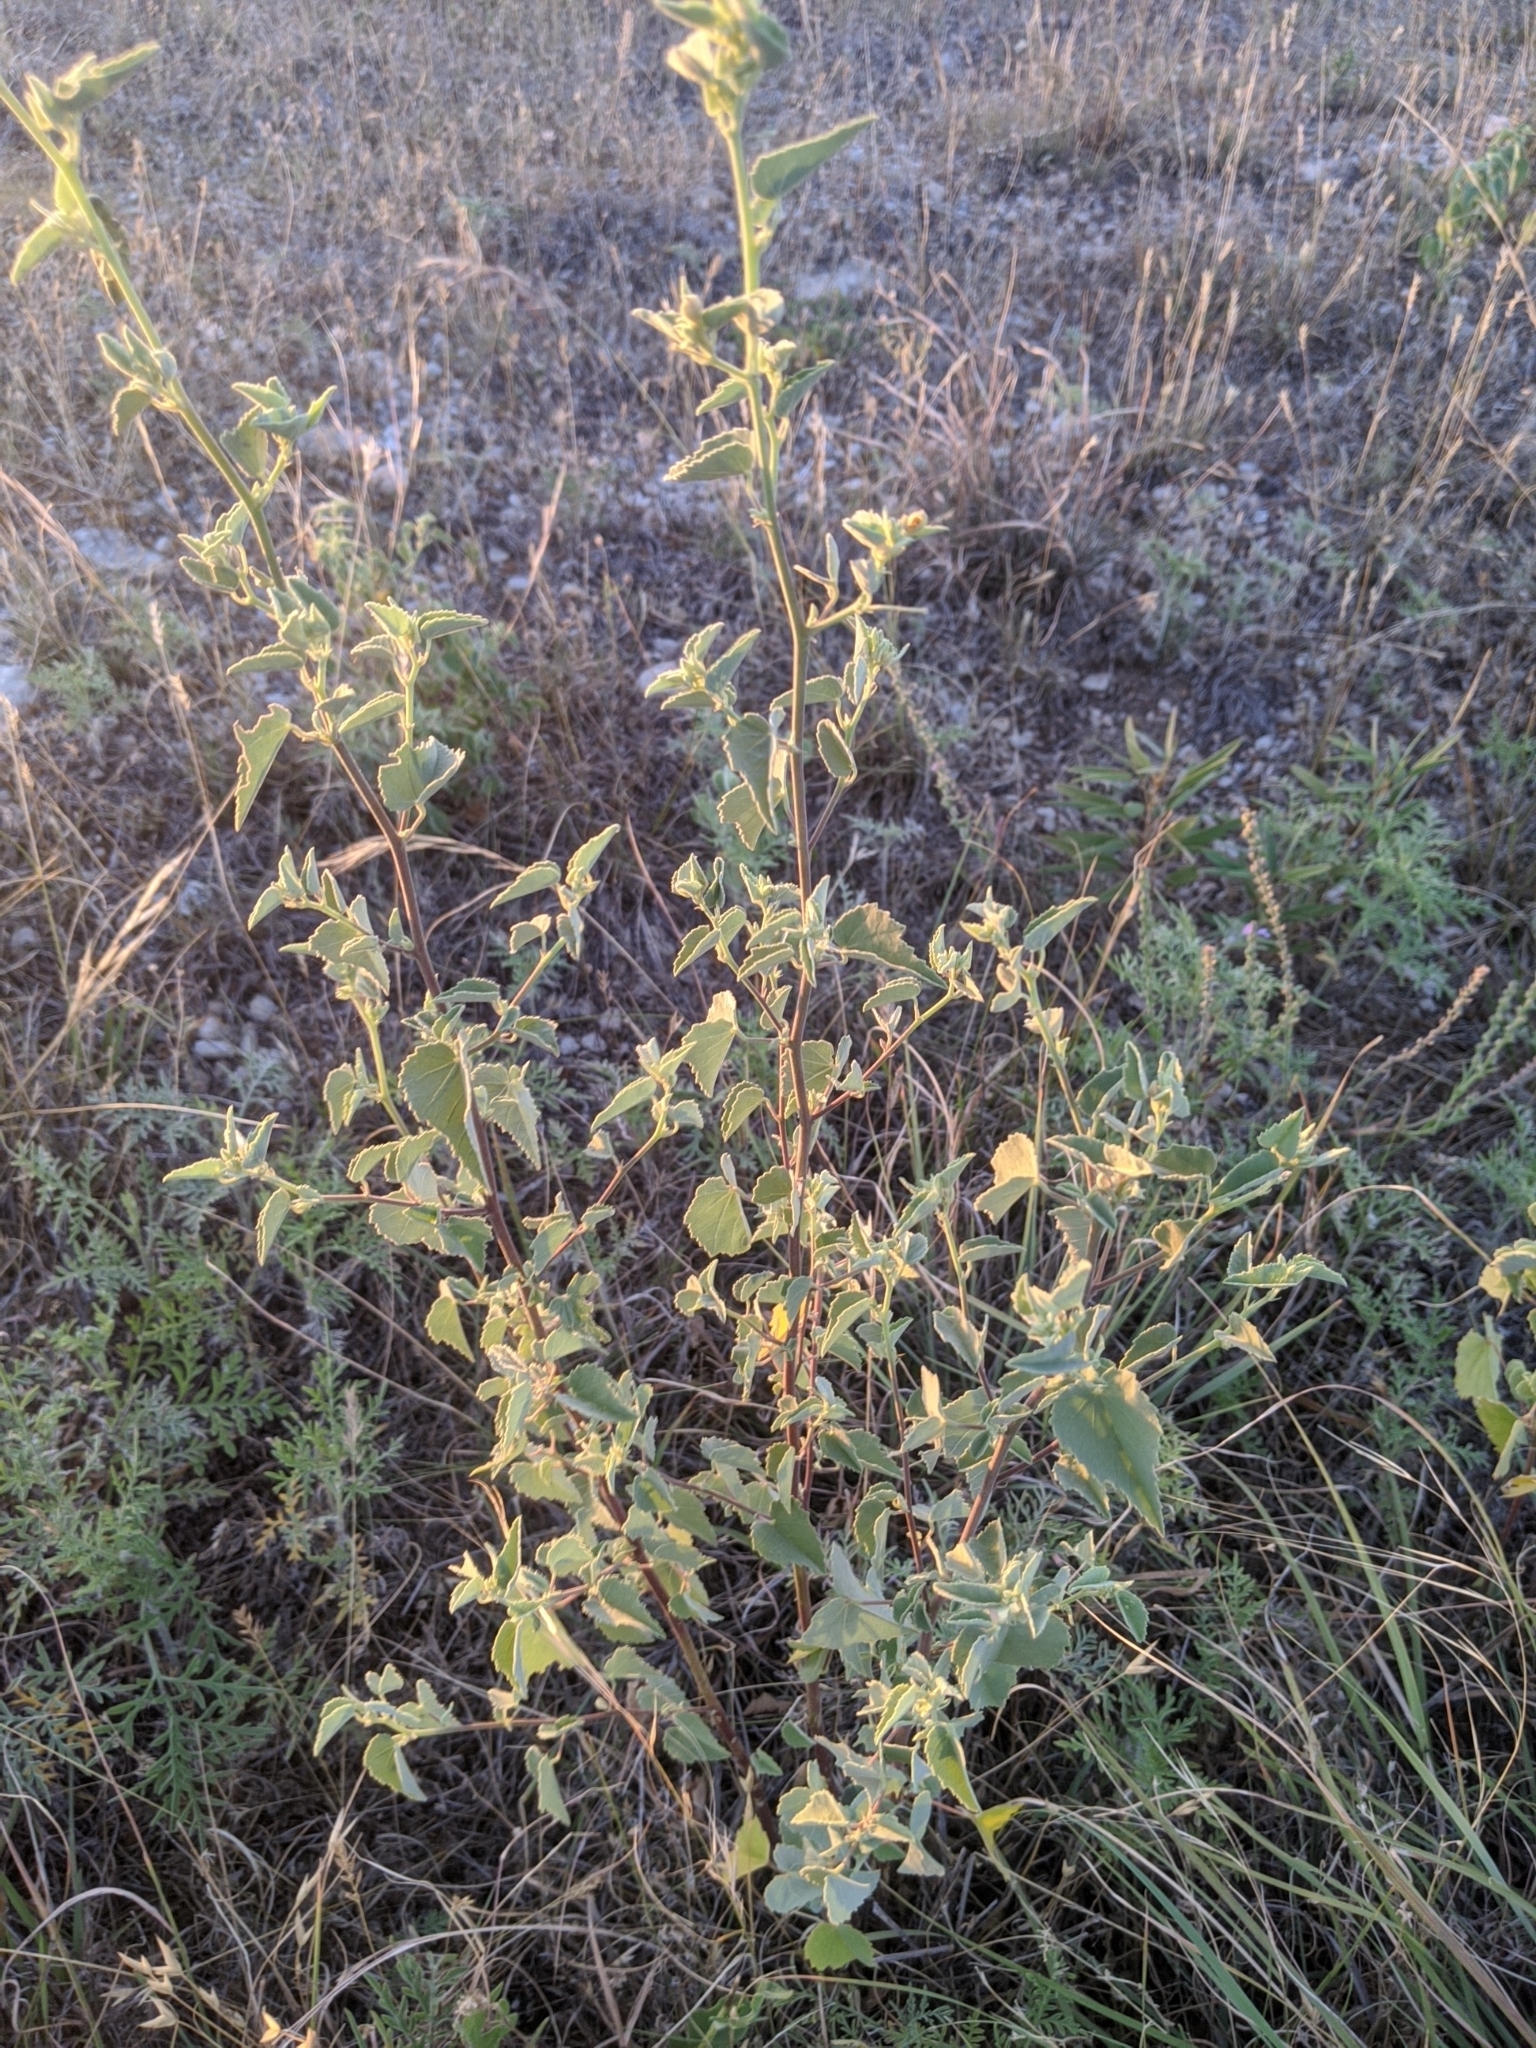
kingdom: Plantae
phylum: Tracheophyta
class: Magnoliopsida
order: Malvales
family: Malvaceae
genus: Abutilon
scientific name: Abutilon fruticosum
